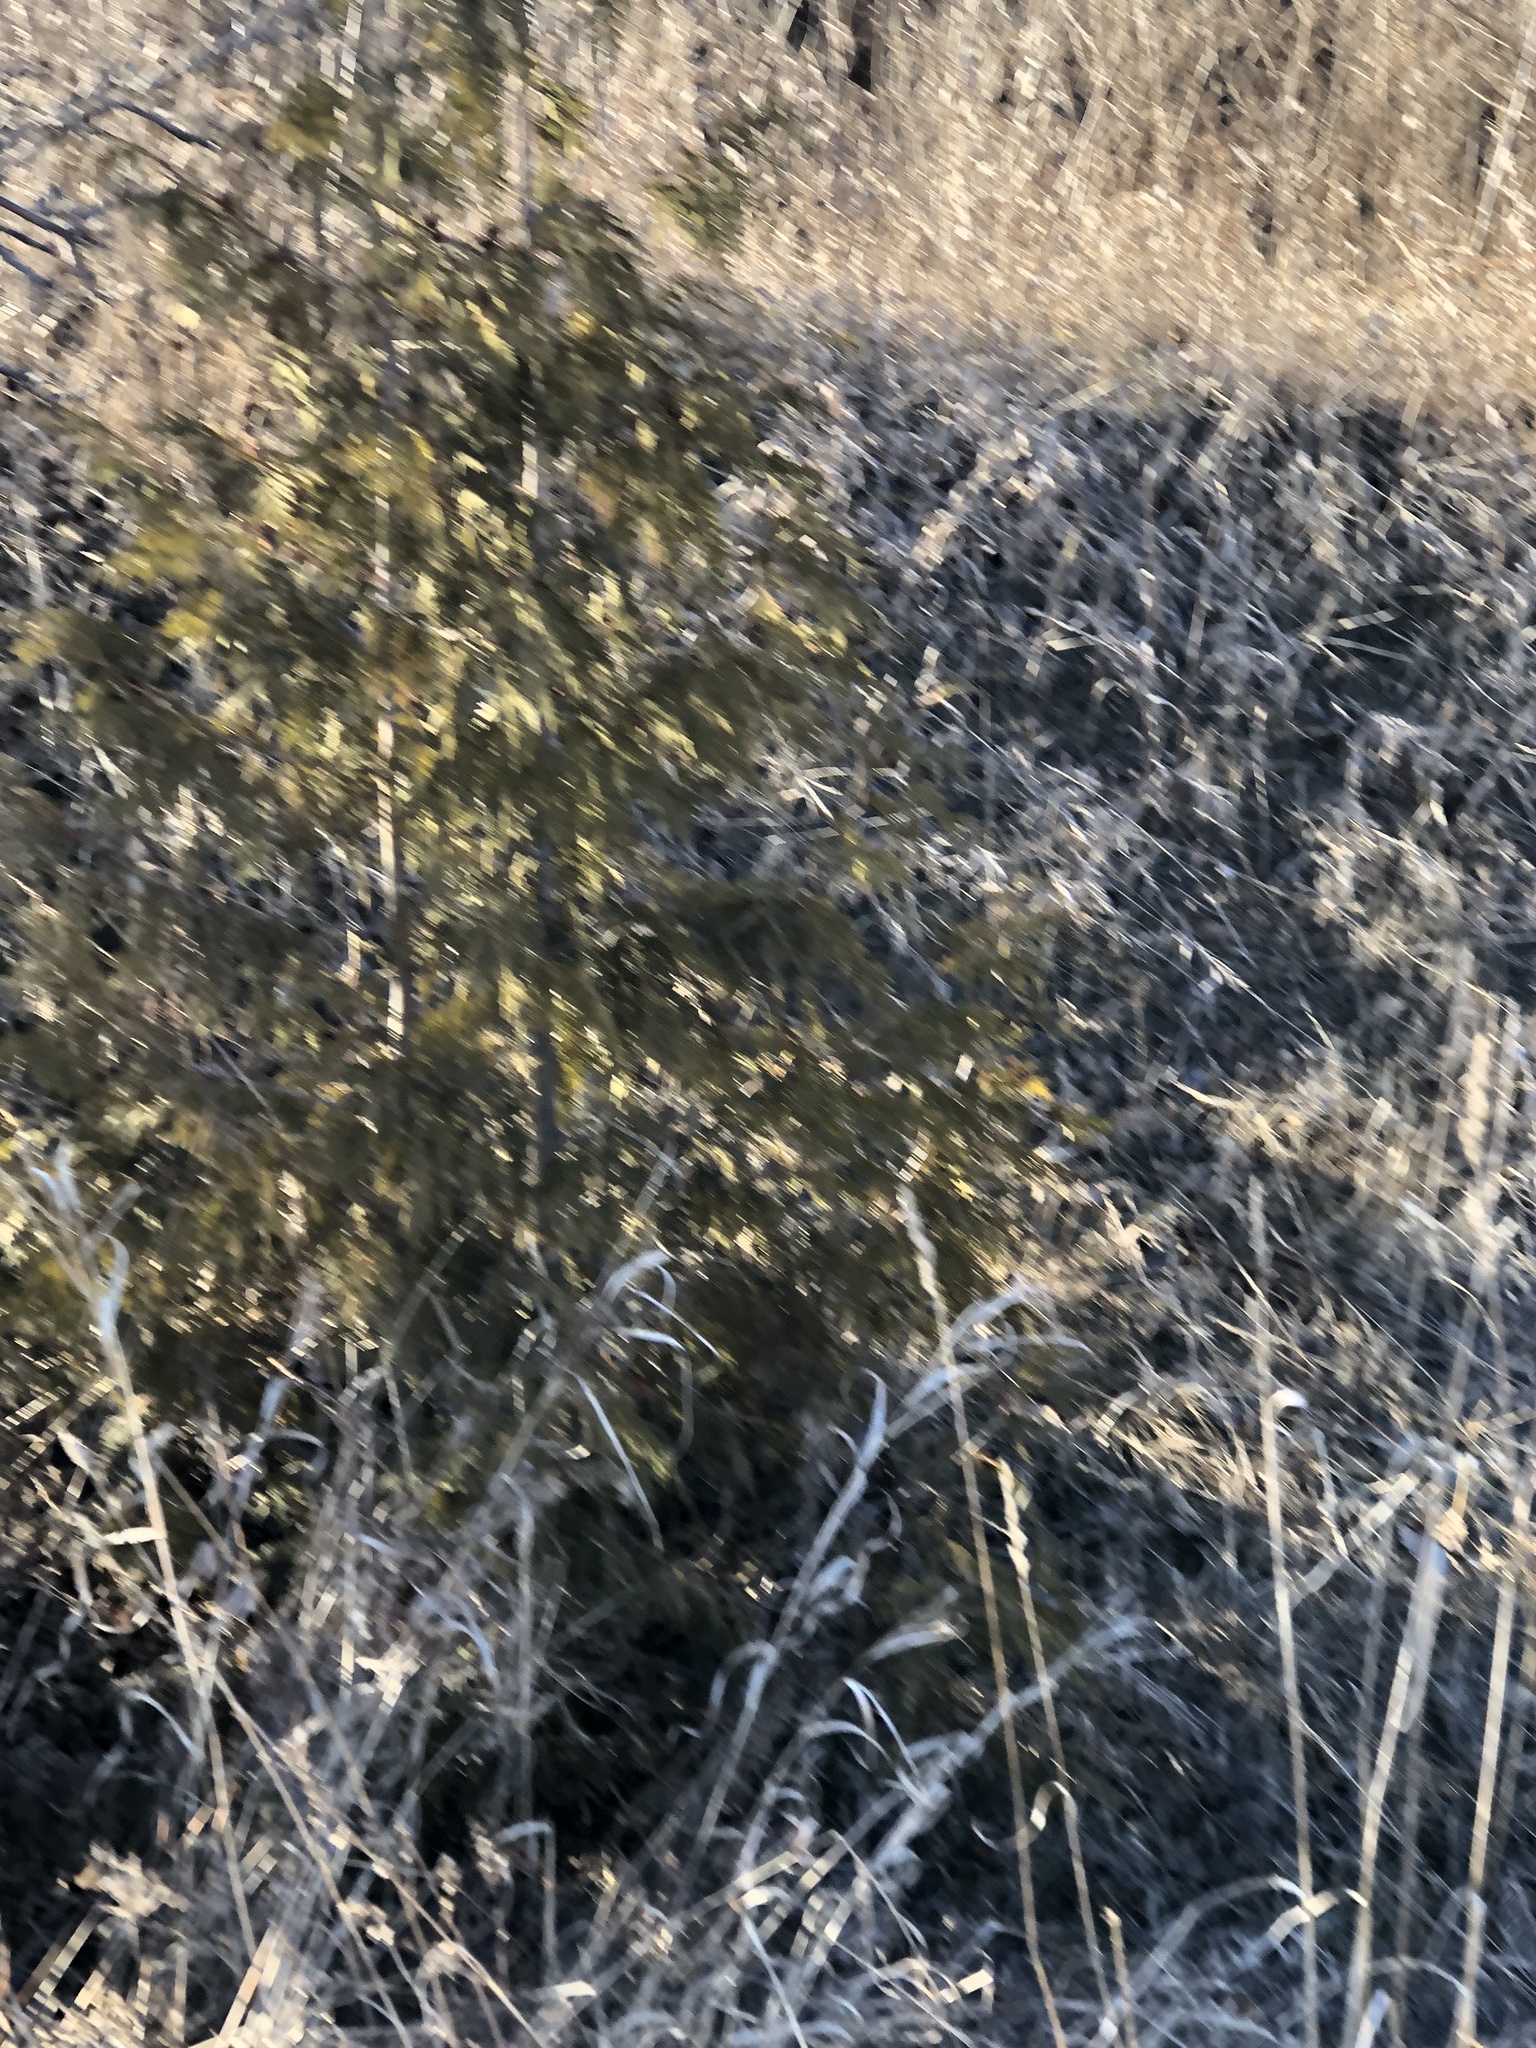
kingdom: Plantae
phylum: Tracheophyta
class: Pinopsida
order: Pinales
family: Cupressaceae
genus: Thuja
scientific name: Thuja occidentalis
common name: Northern white-cedar
